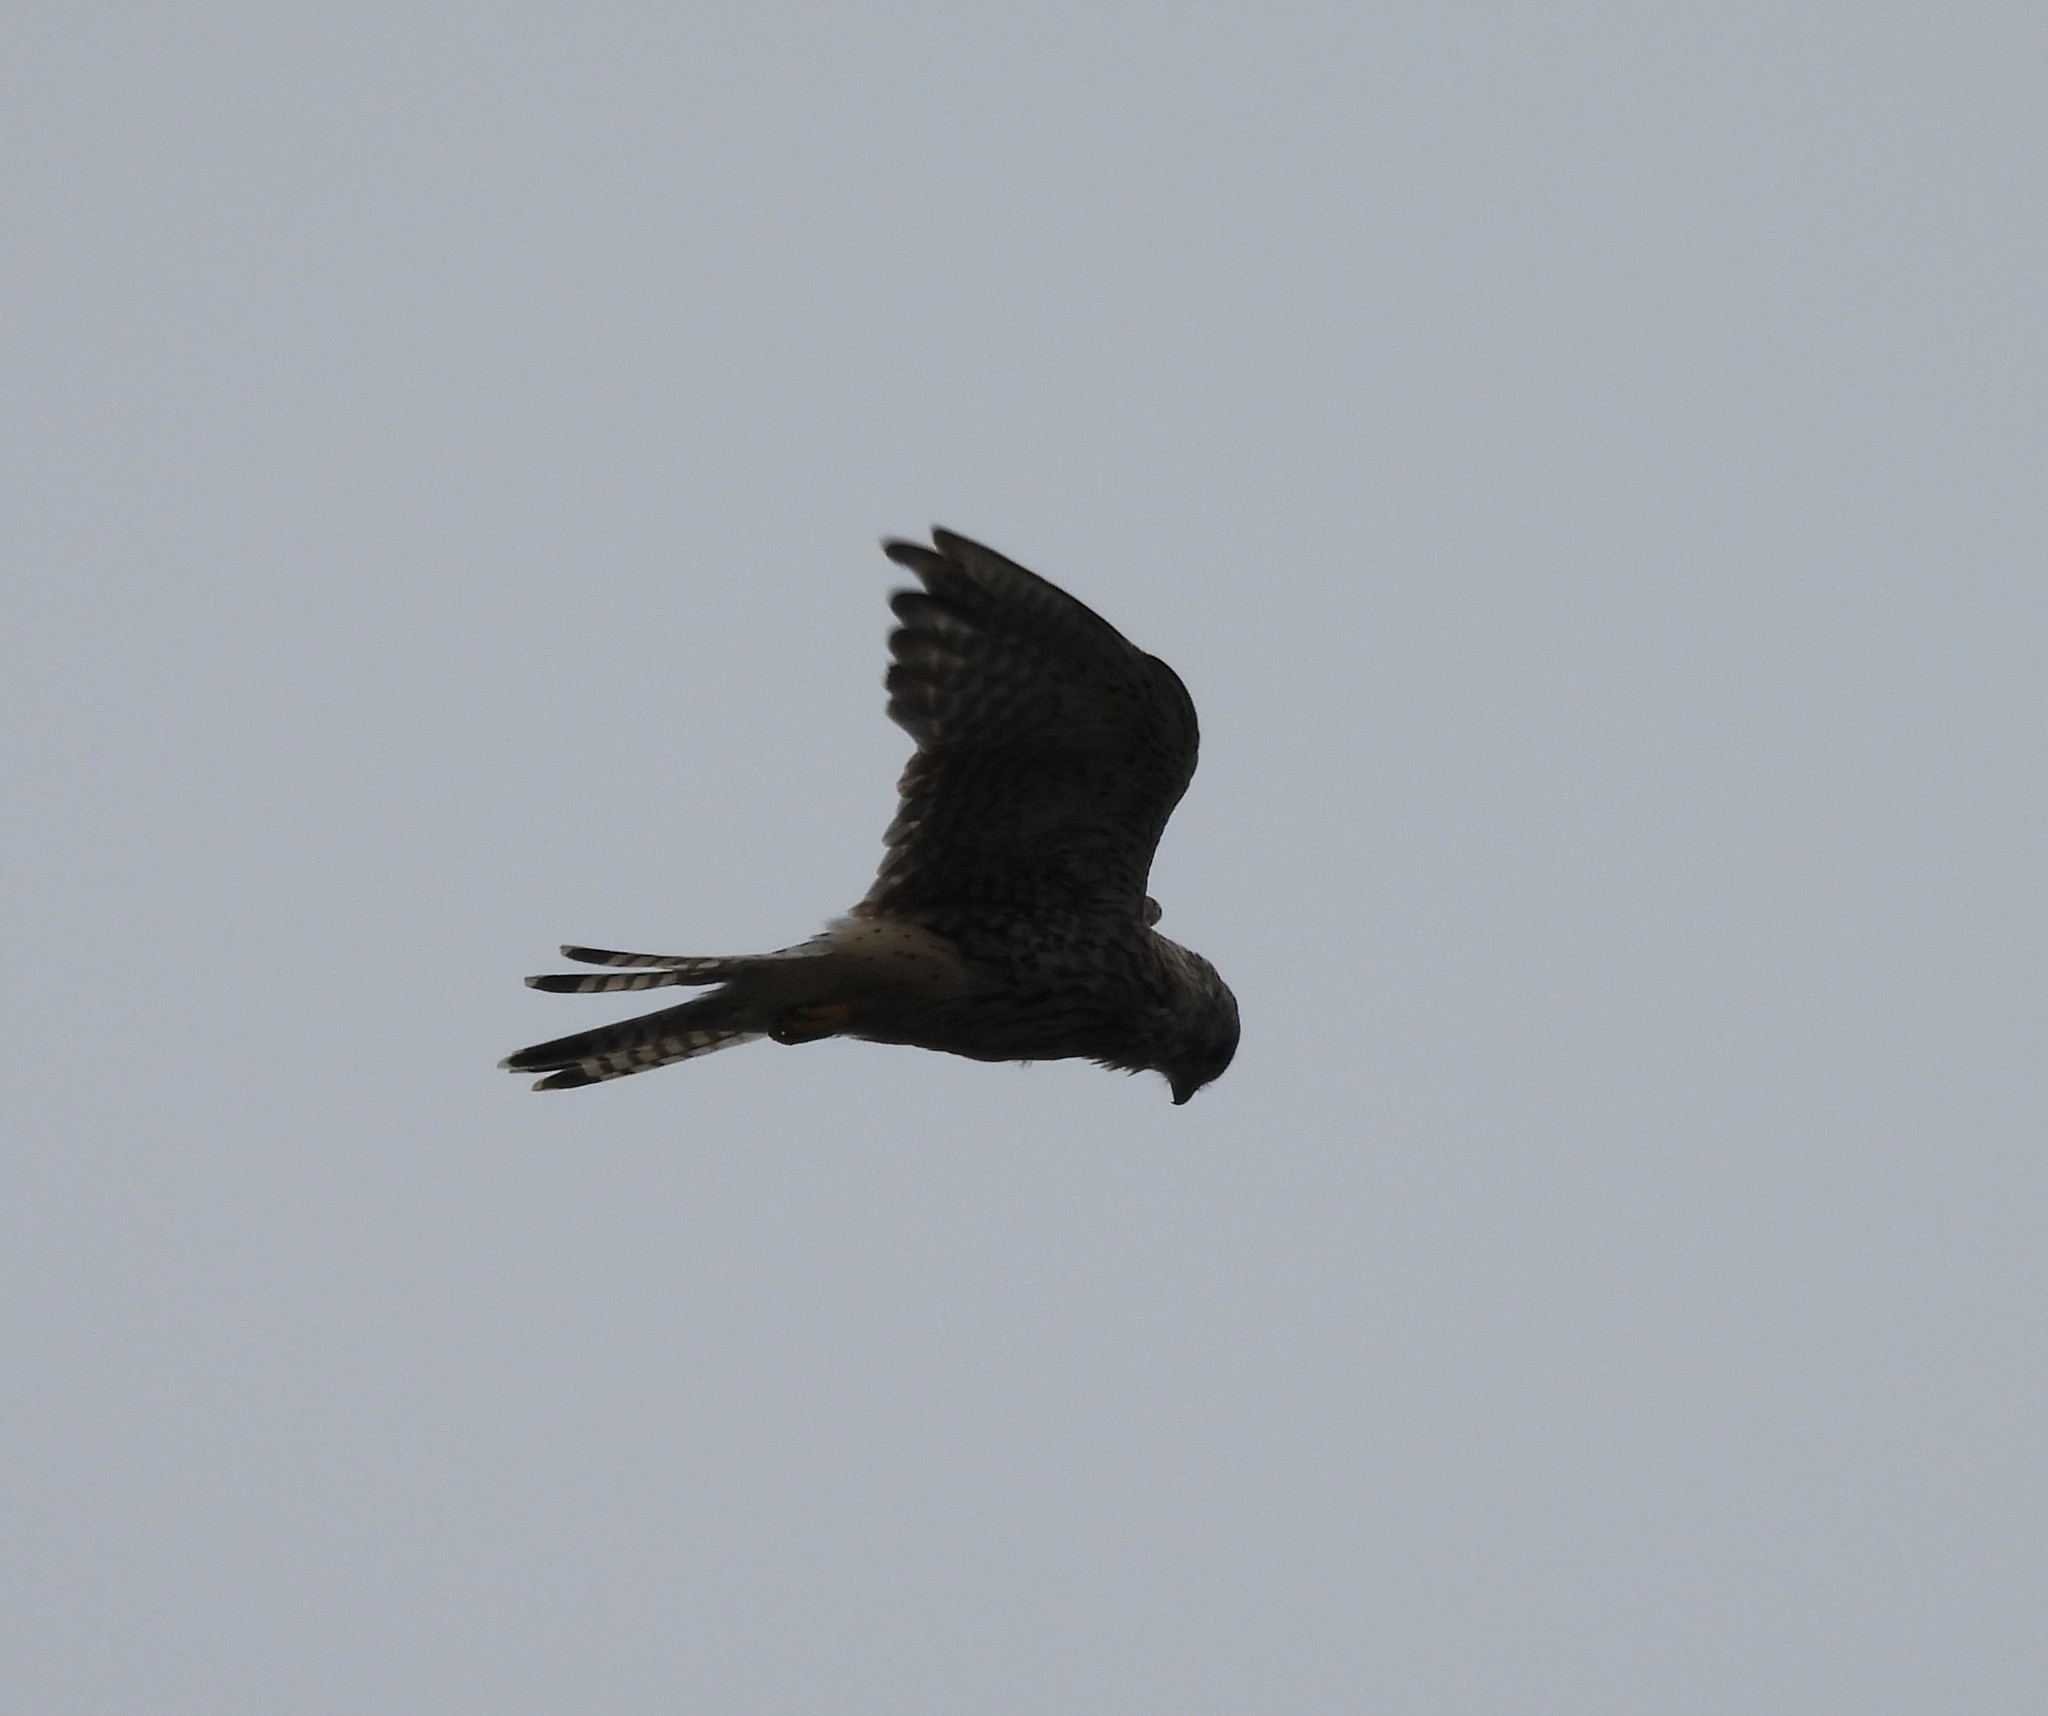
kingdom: Animalia
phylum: Chordata
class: Aves
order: Falconiformes
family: Falconidae
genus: Falco
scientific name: Falco tinnunculus
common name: Common kestrel
